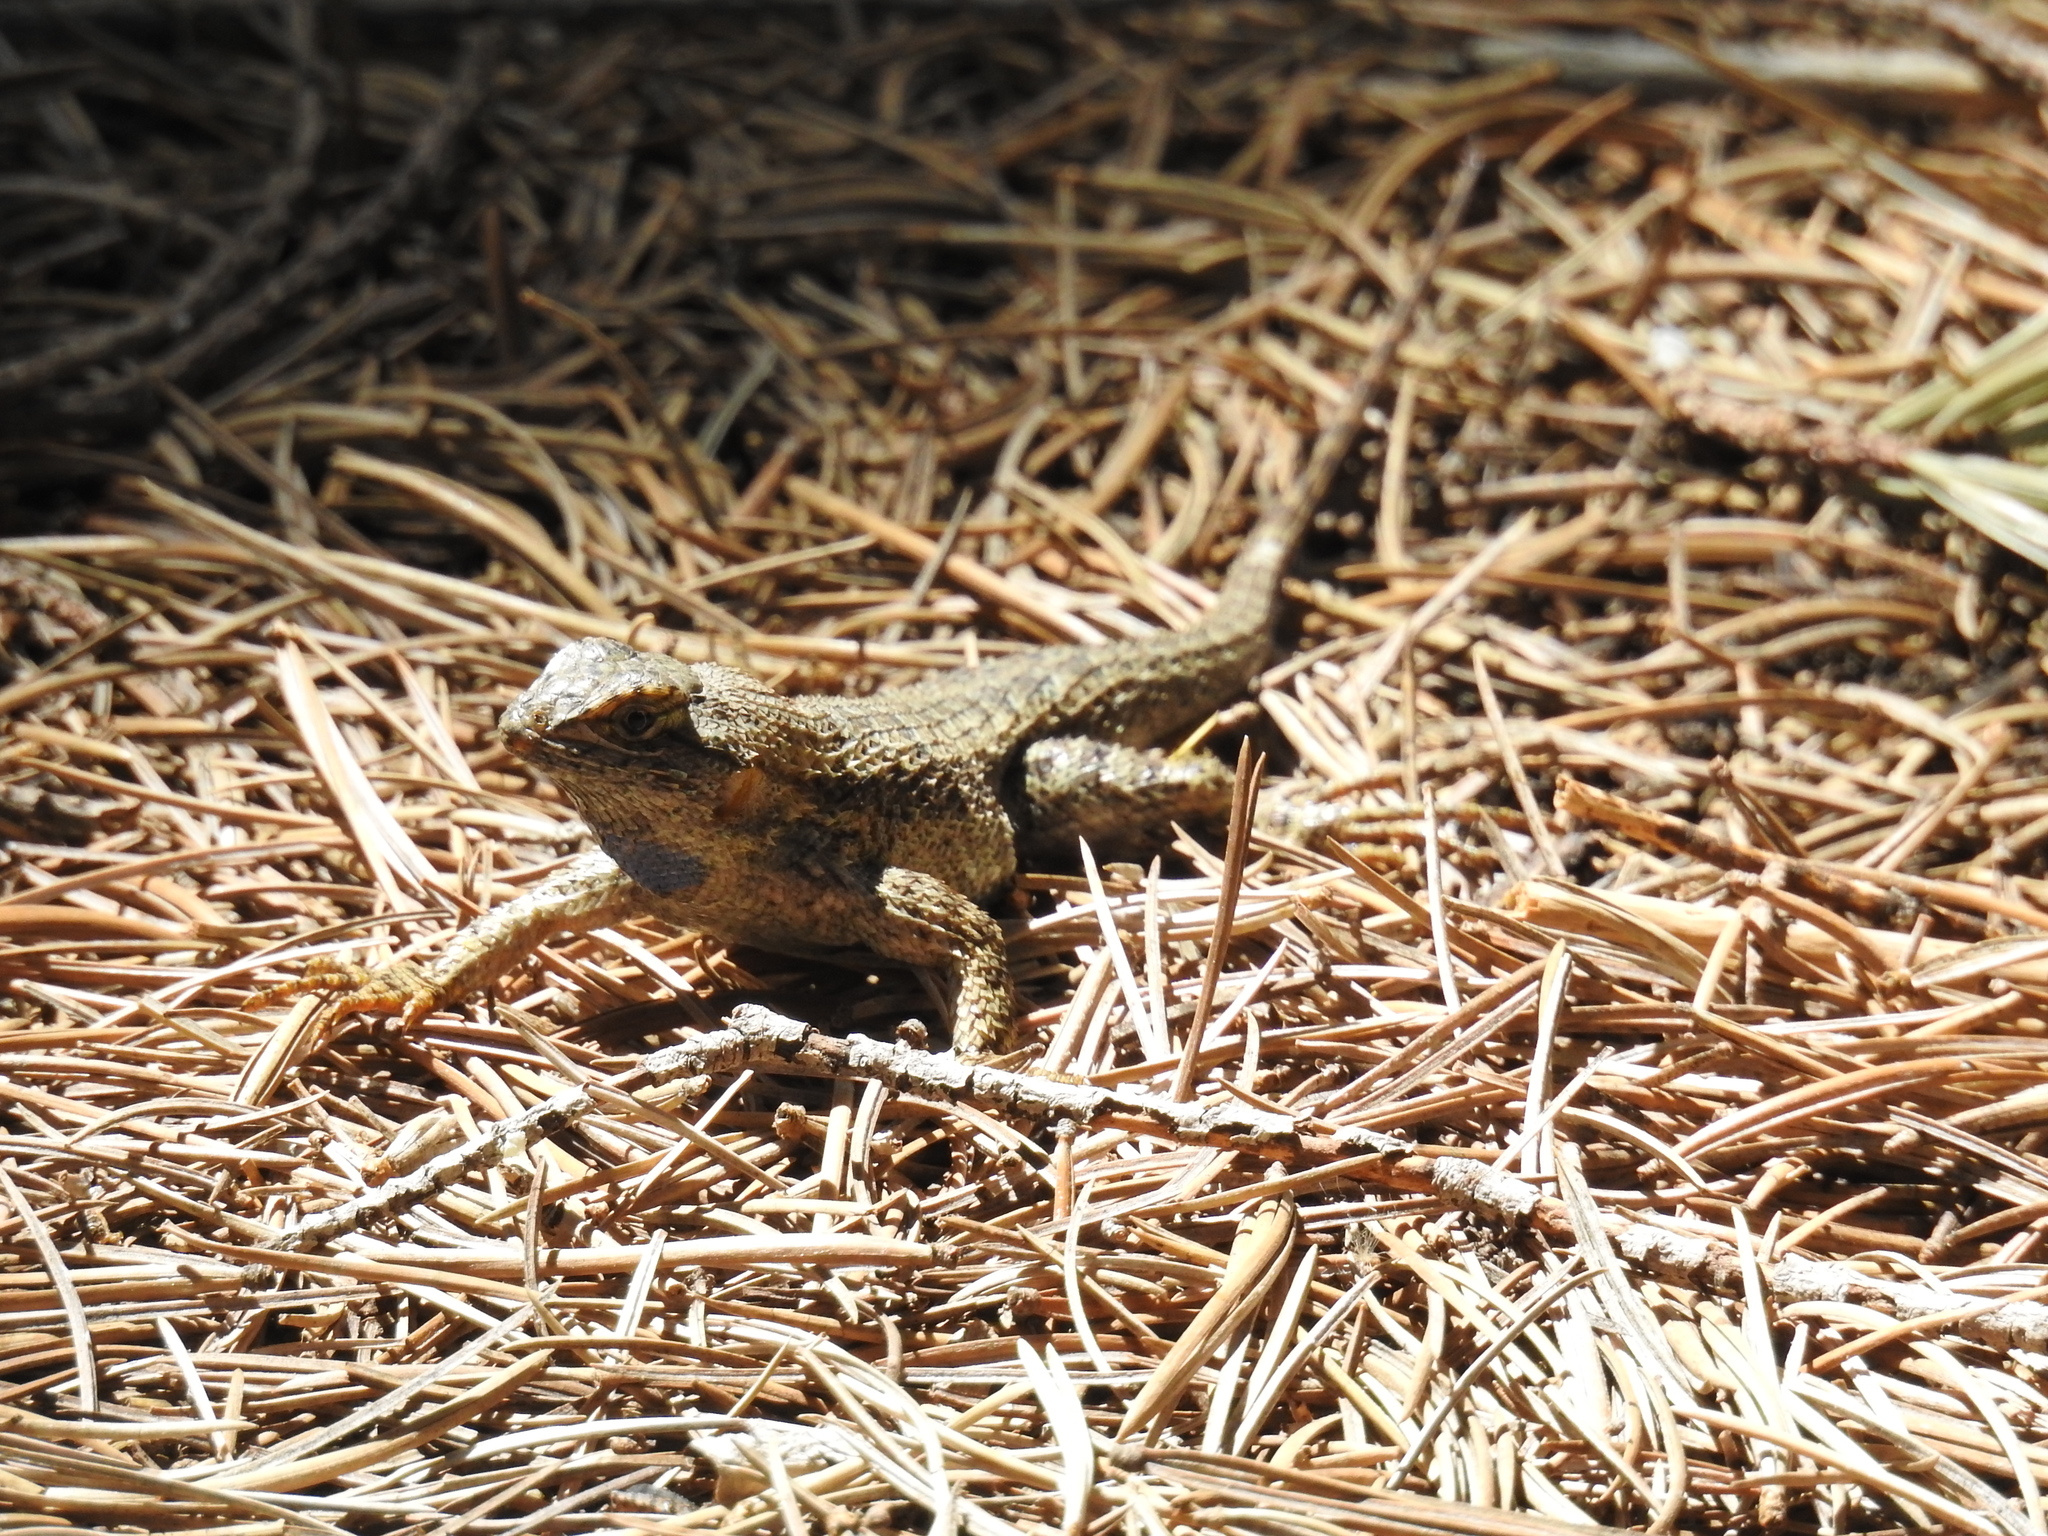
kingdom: Animalia
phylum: Chordata
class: Squamata
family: Phrynosomatidae
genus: Sceloporus
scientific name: Sceloporus occidentalis
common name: Western fence lizard
